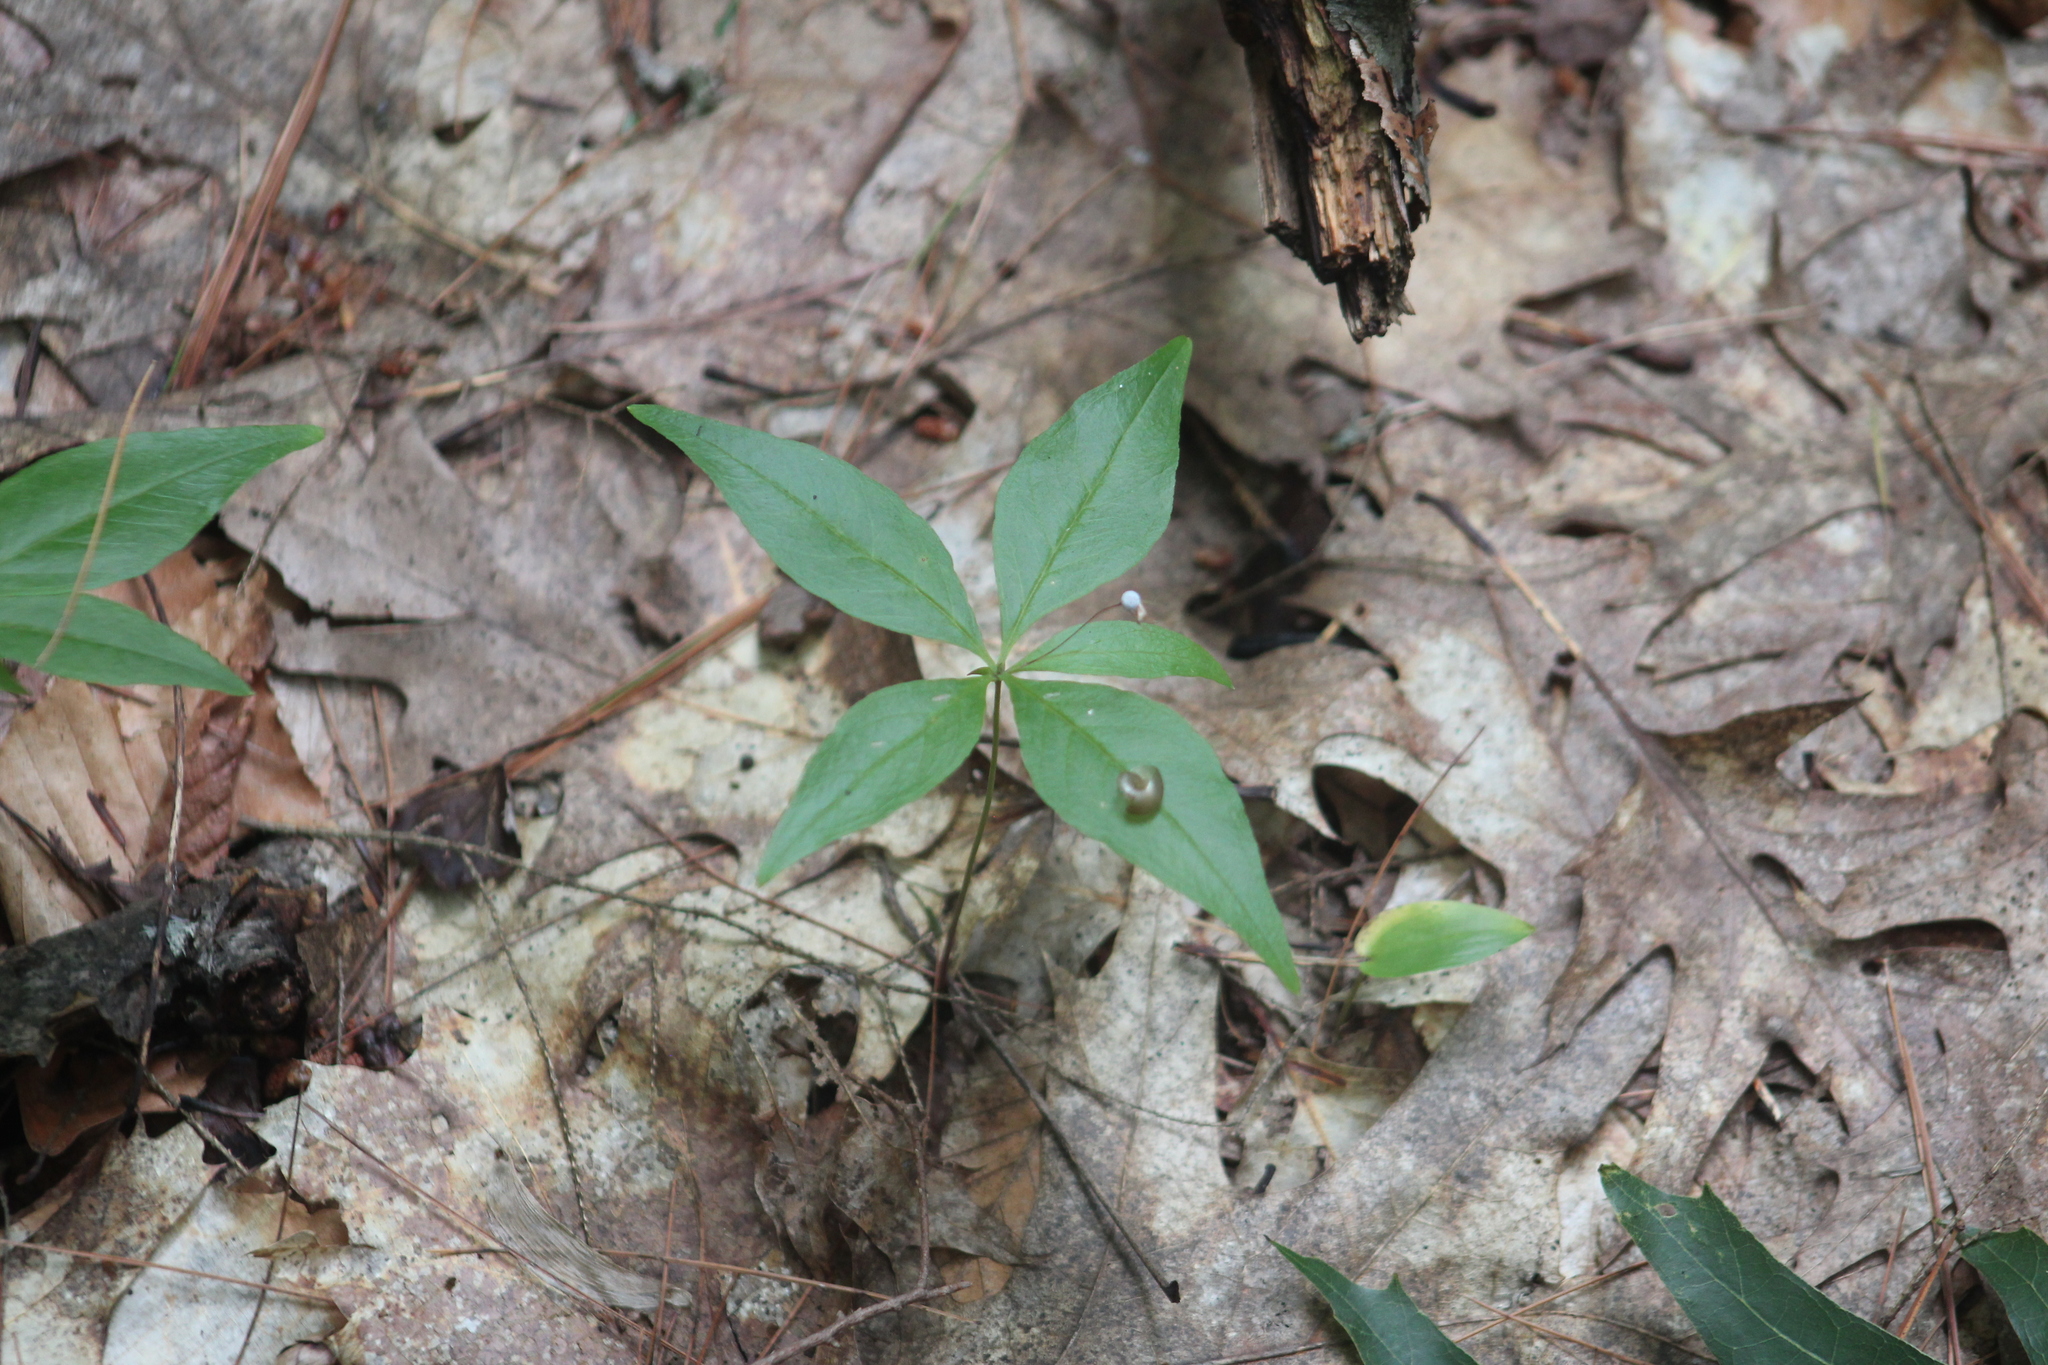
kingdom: Plantae
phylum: Tracheophyta
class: Magnoliopsida
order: Ericales
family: Primulaceae
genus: Lysimachia
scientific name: Lysimachia borealis
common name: American starflower
